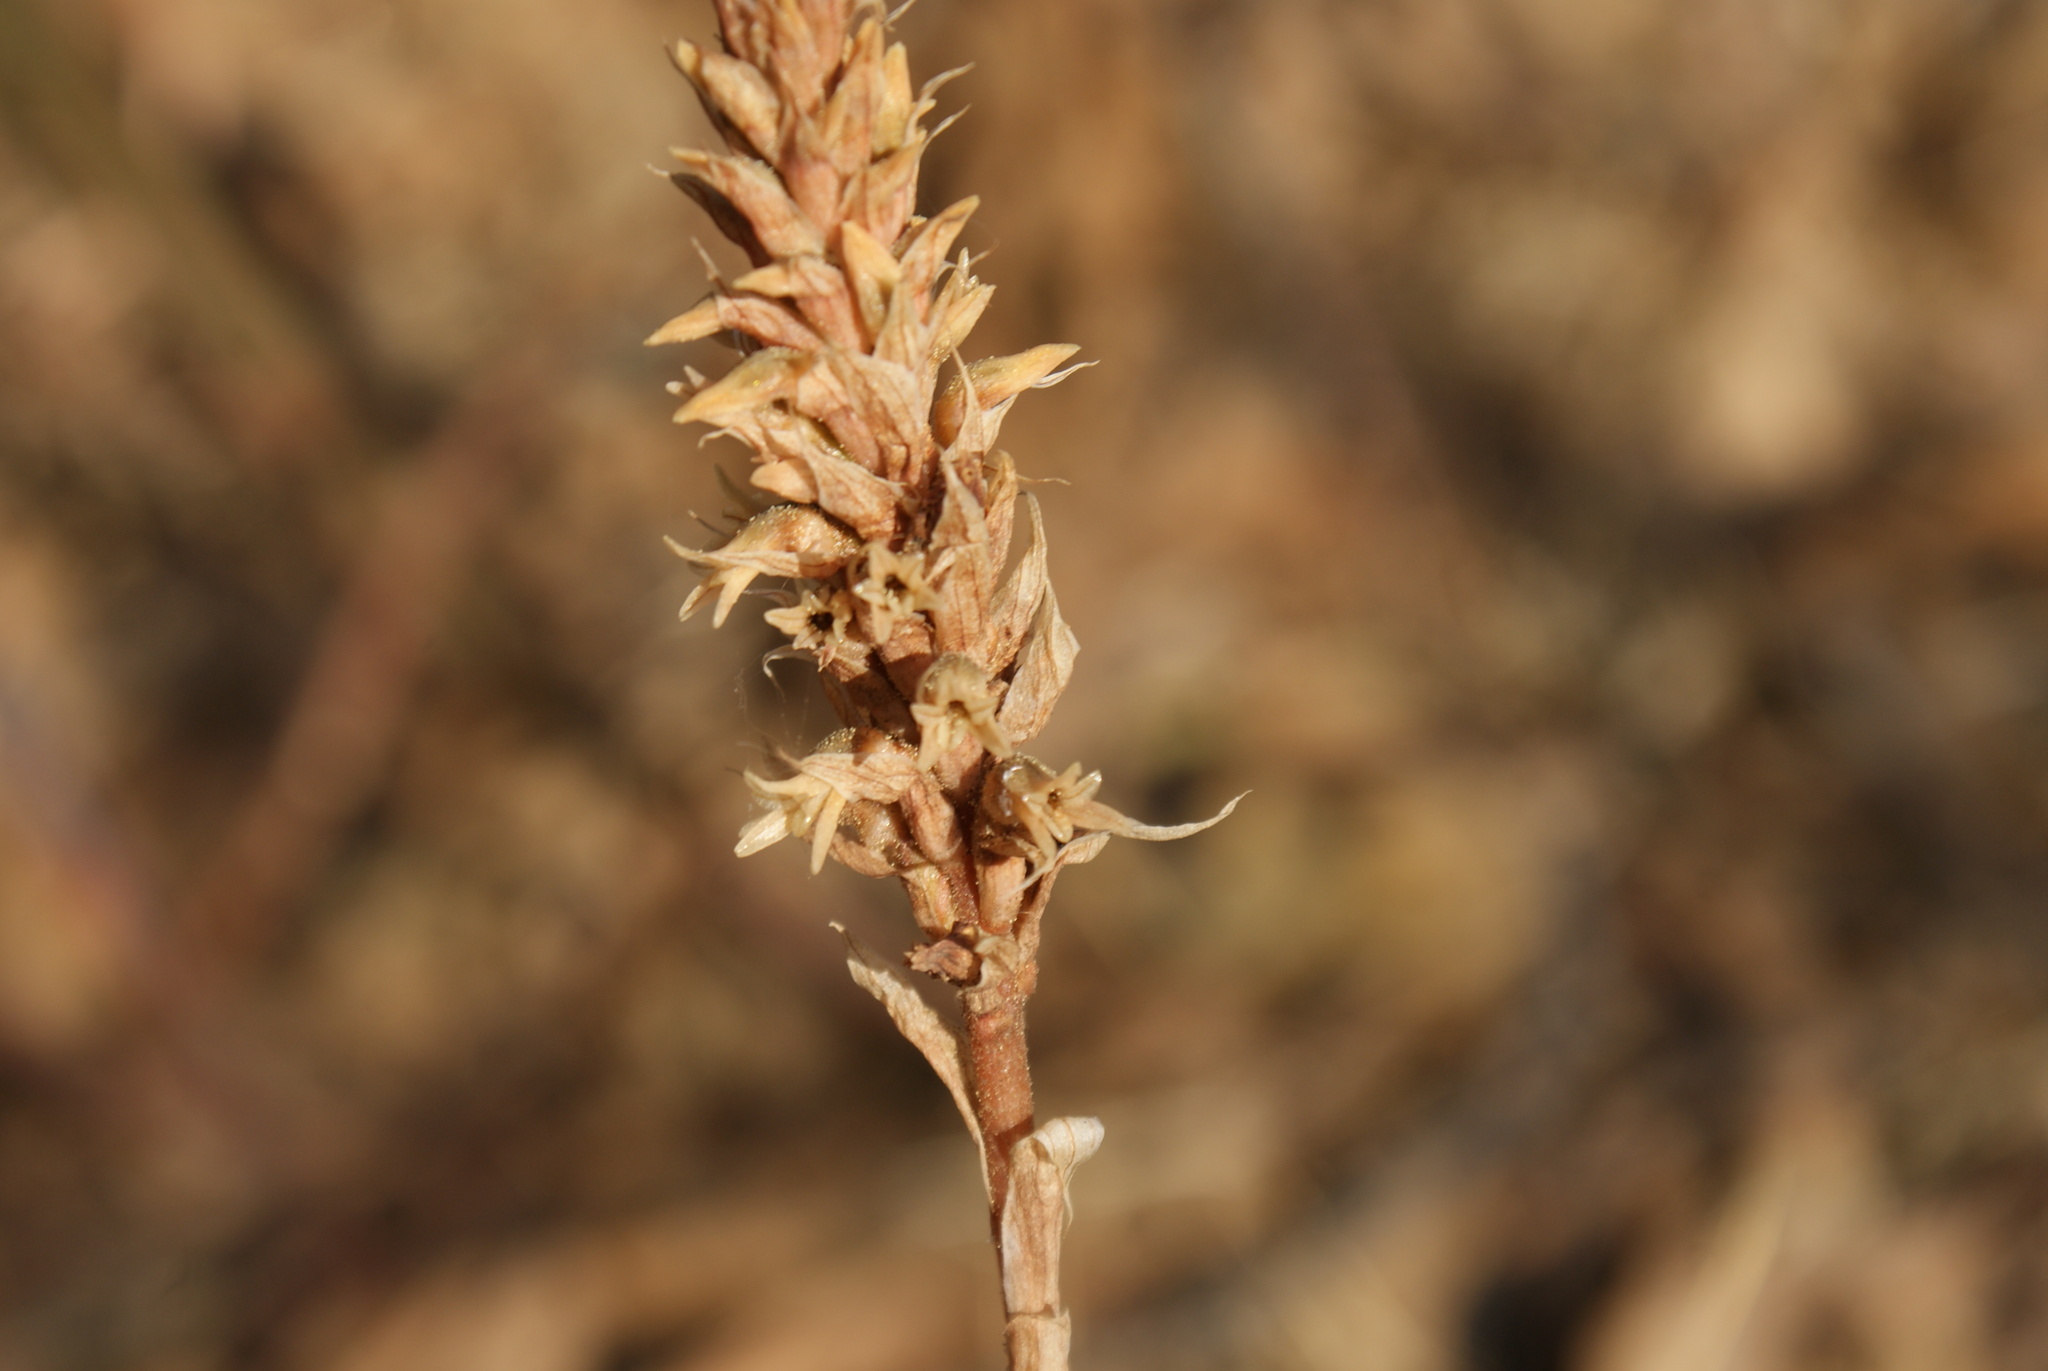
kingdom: Plantae
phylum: Tracheophyta
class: Liliopsida
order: Asparagales
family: Orchidaceae
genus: Aulosepalum
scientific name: Aulosepalum pyramidale
